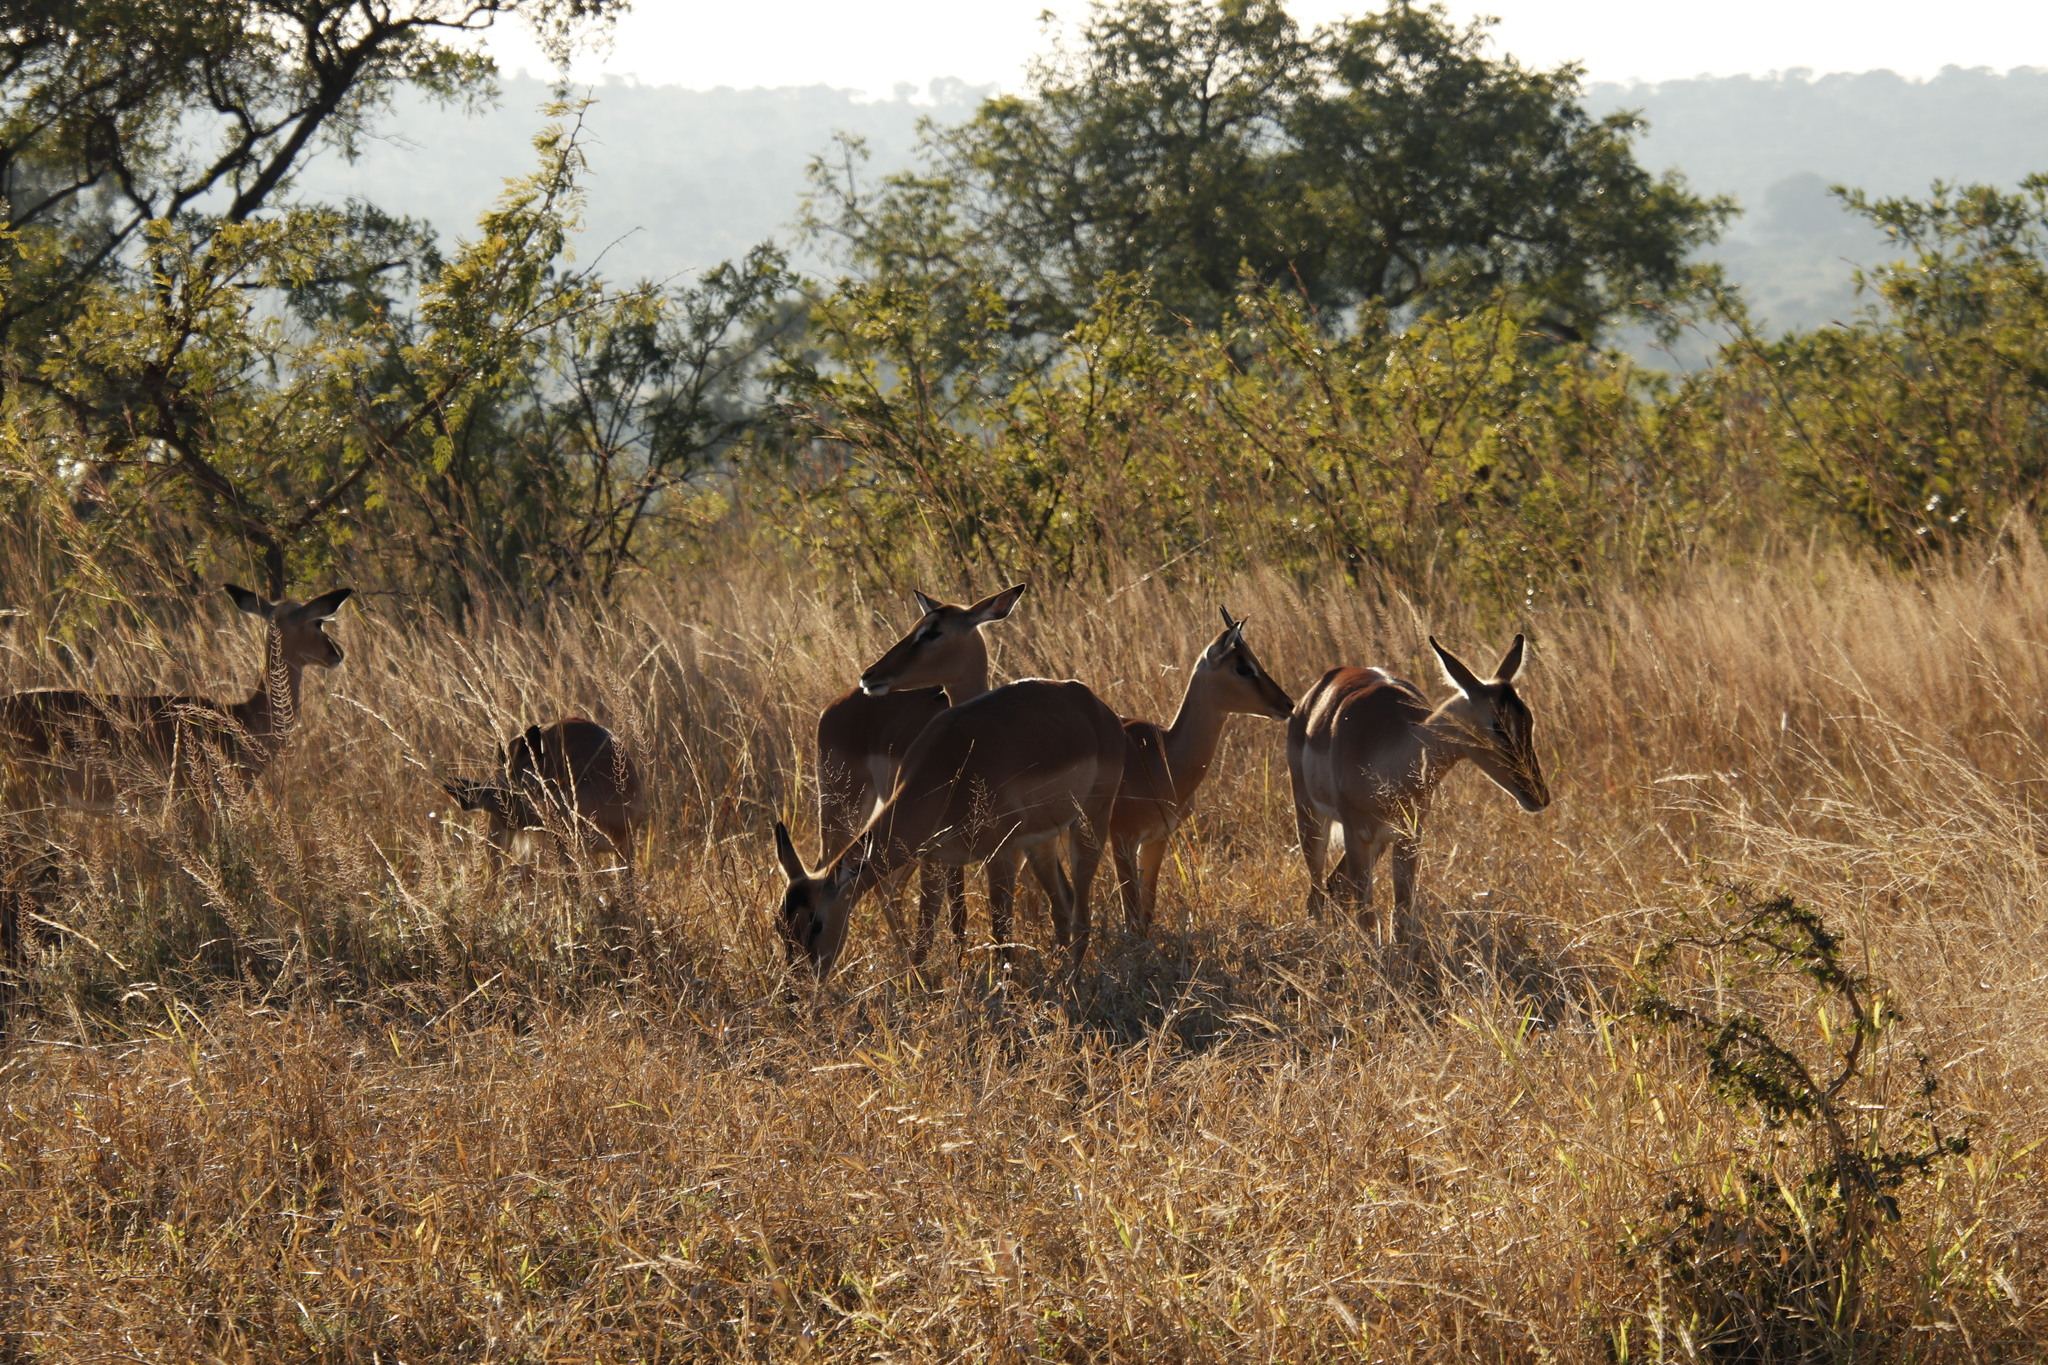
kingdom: Animalia
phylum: Chordata
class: Mammalia
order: Artiodactyla
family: Bovidae
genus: Aepyceros
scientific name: Aepyceros melampus
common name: Impala
